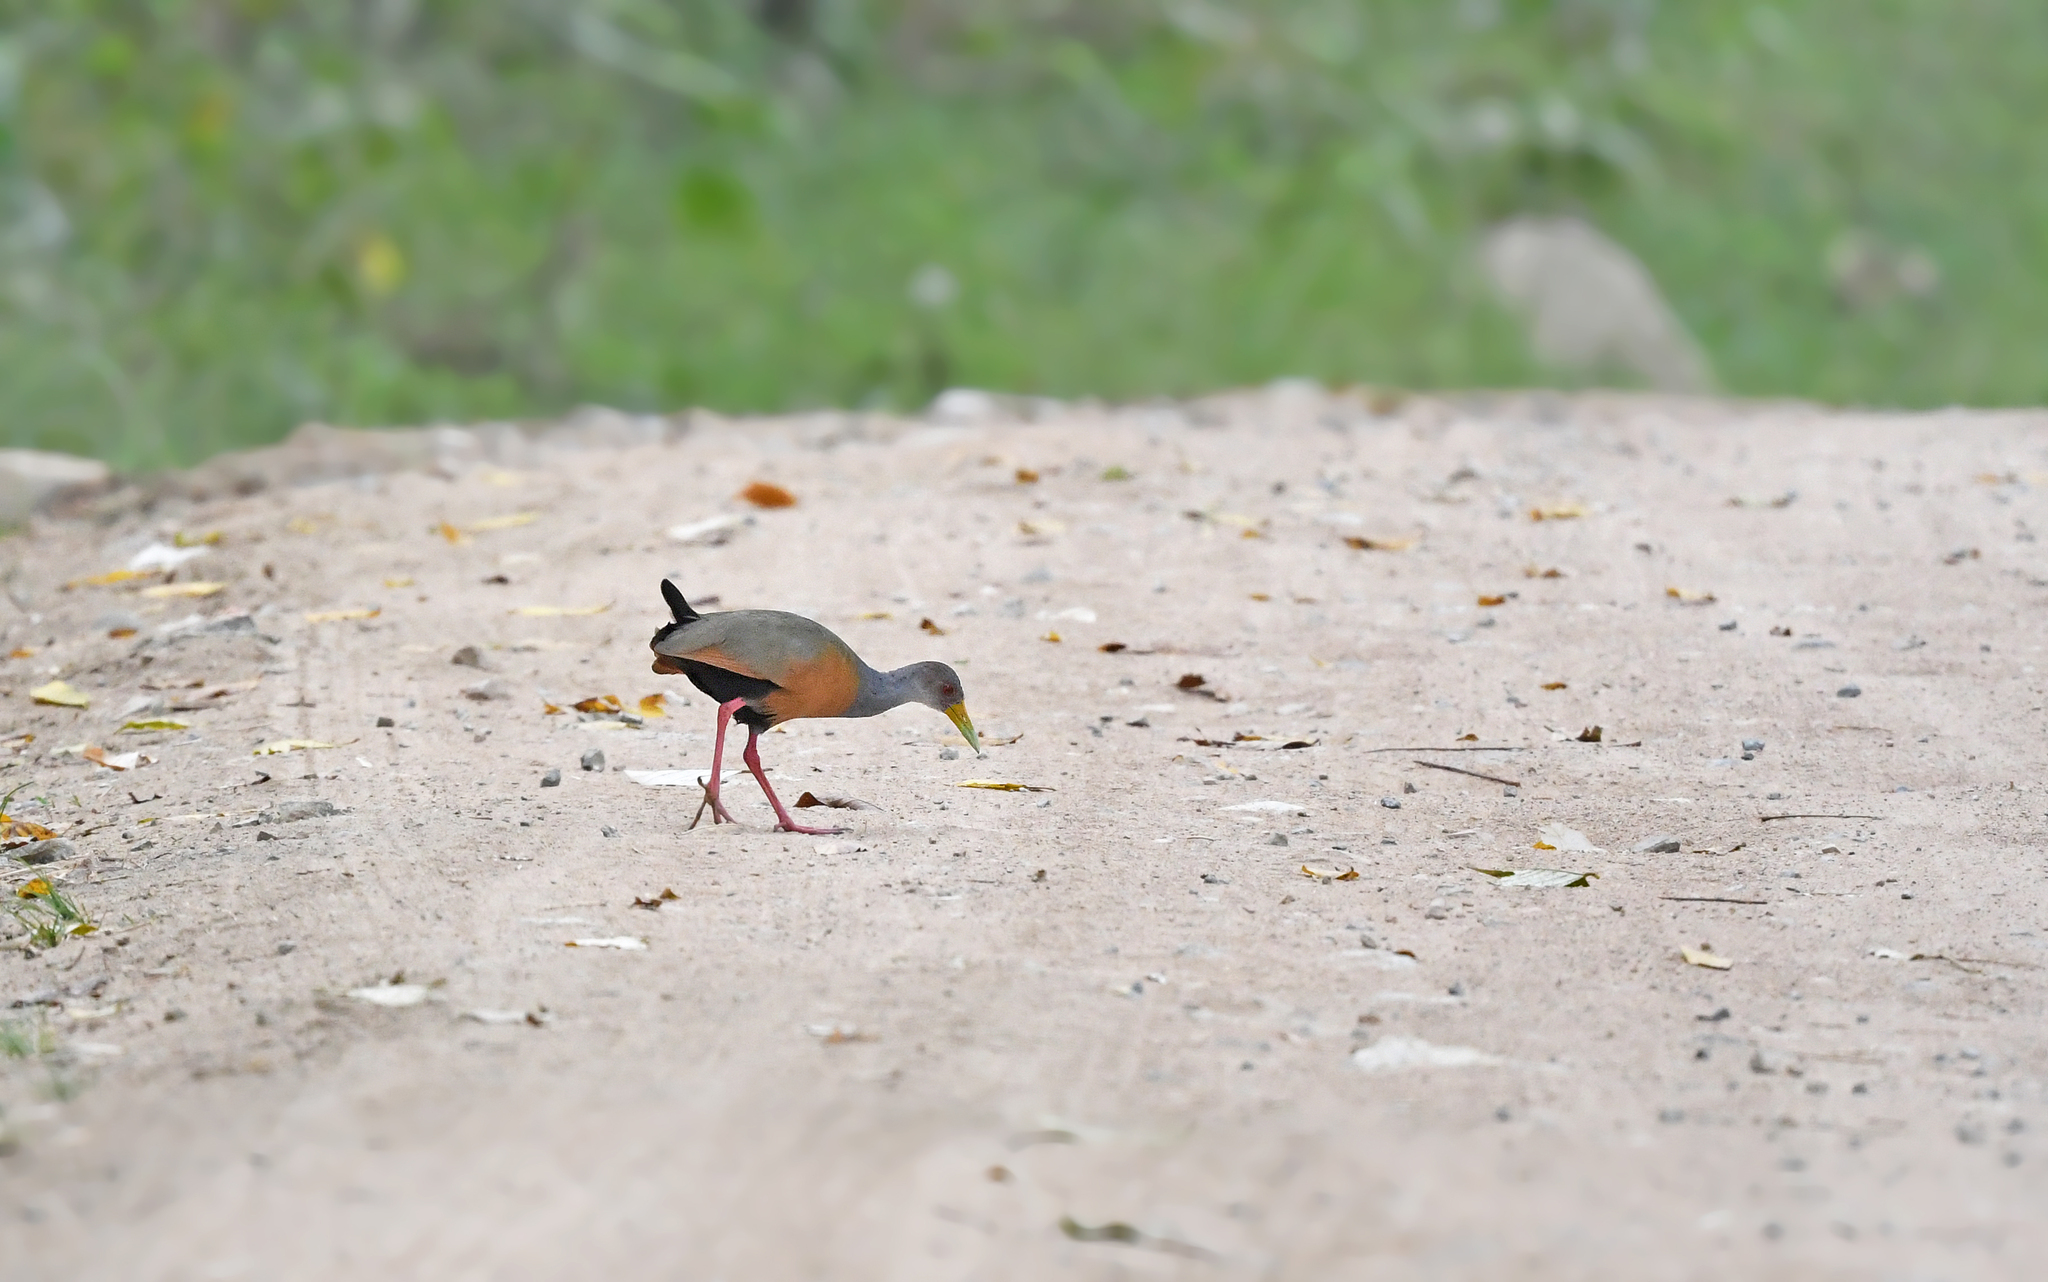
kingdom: Animalia
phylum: Chordata
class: Aves
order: Gruiformes
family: Rallidae
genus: Aramides
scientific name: Aramides cajanea
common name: Gray-necked wood-rail
